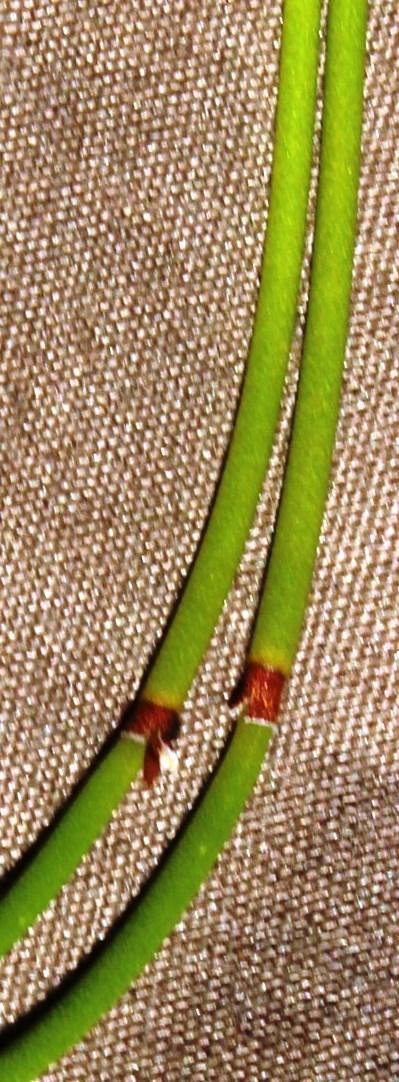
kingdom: Plantae
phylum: Tracheophyta
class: Liliopsida
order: Poales
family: Restionaceae
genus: Elegia
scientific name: Elegia vaginulata
